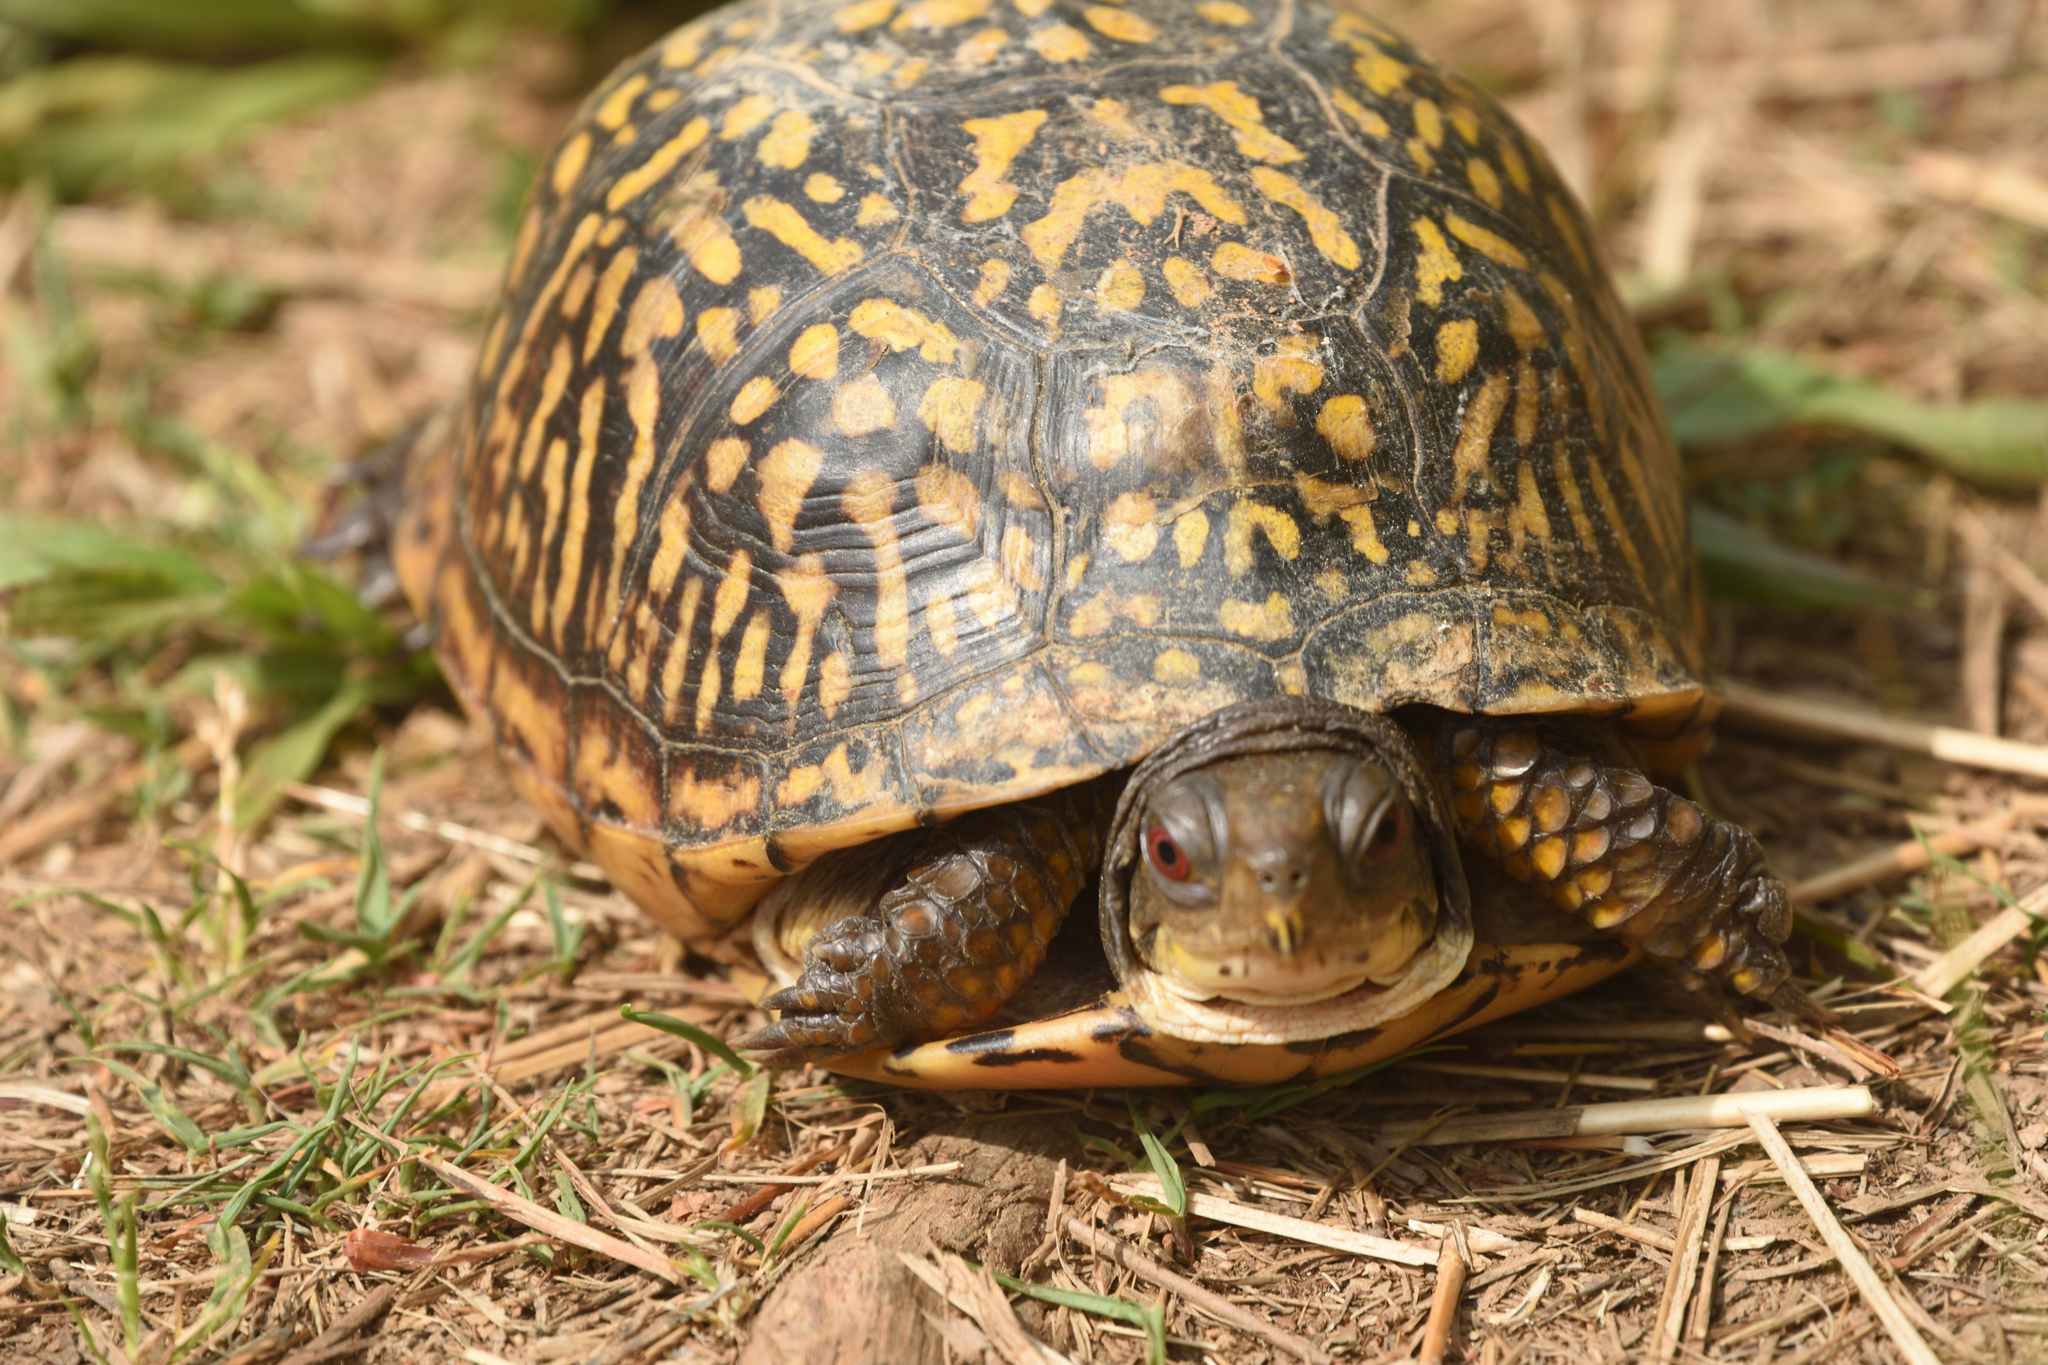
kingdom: Animalia
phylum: Chordata
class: Testudines
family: Emydidae
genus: Terrapene
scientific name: Terrapene carolina
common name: Common box turtle
